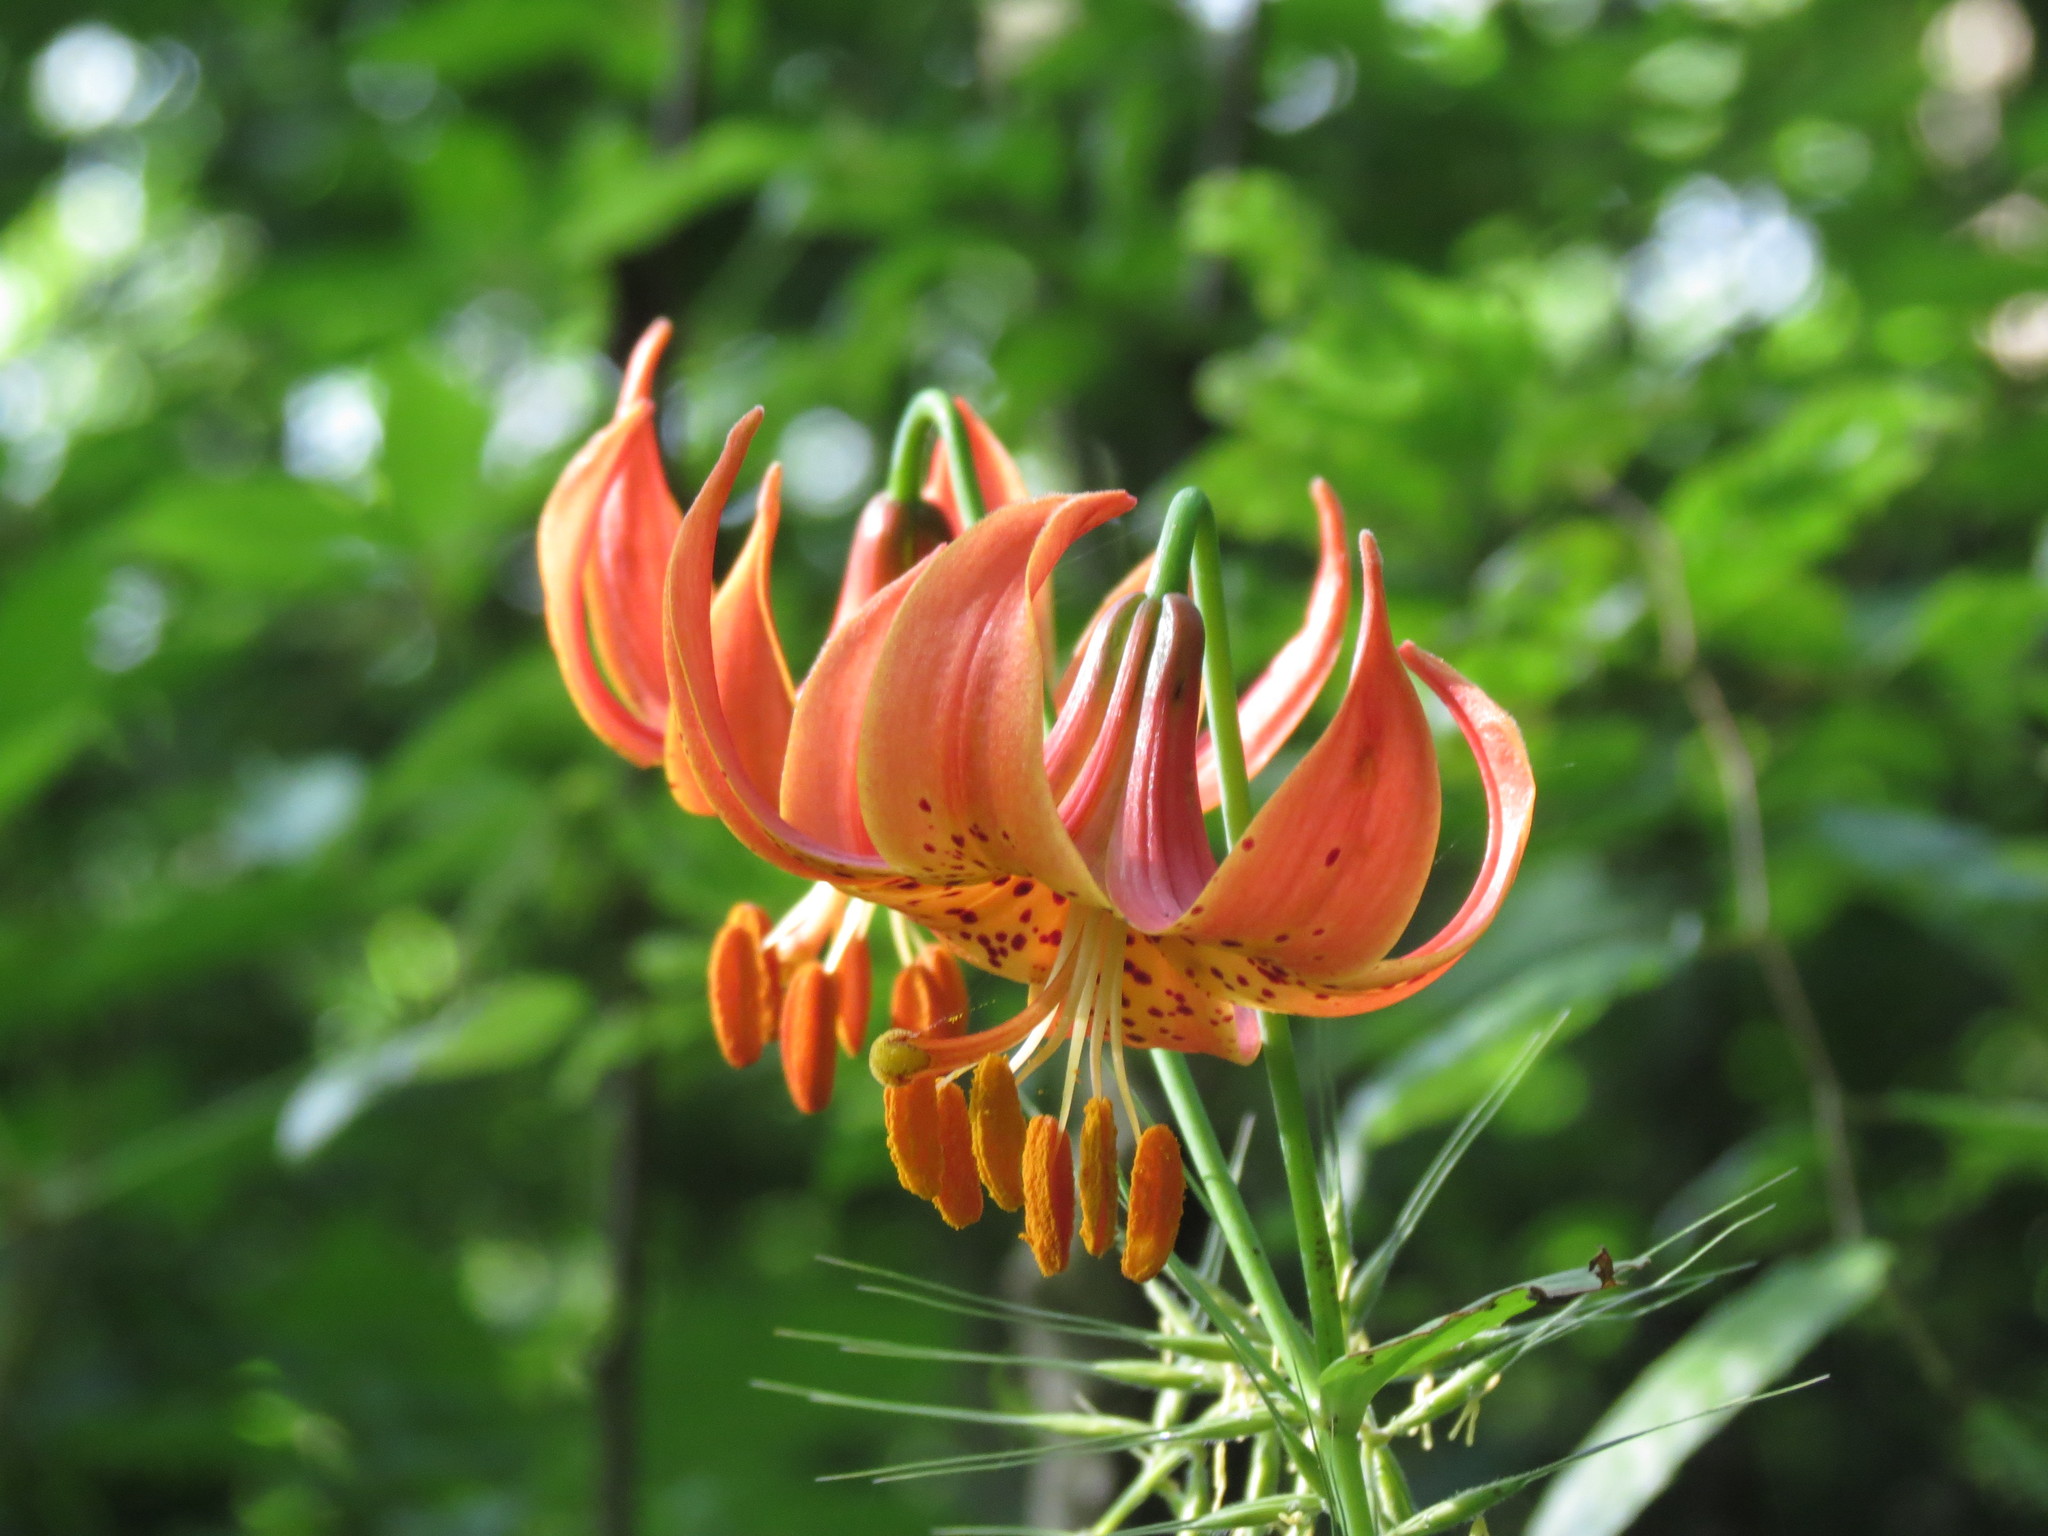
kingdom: Plantae
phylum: Tracheophyta
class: Liliopsida
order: Liliales
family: Liliaceae
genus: Lilium
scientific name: Lilium michiganense
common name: Michigan lily
